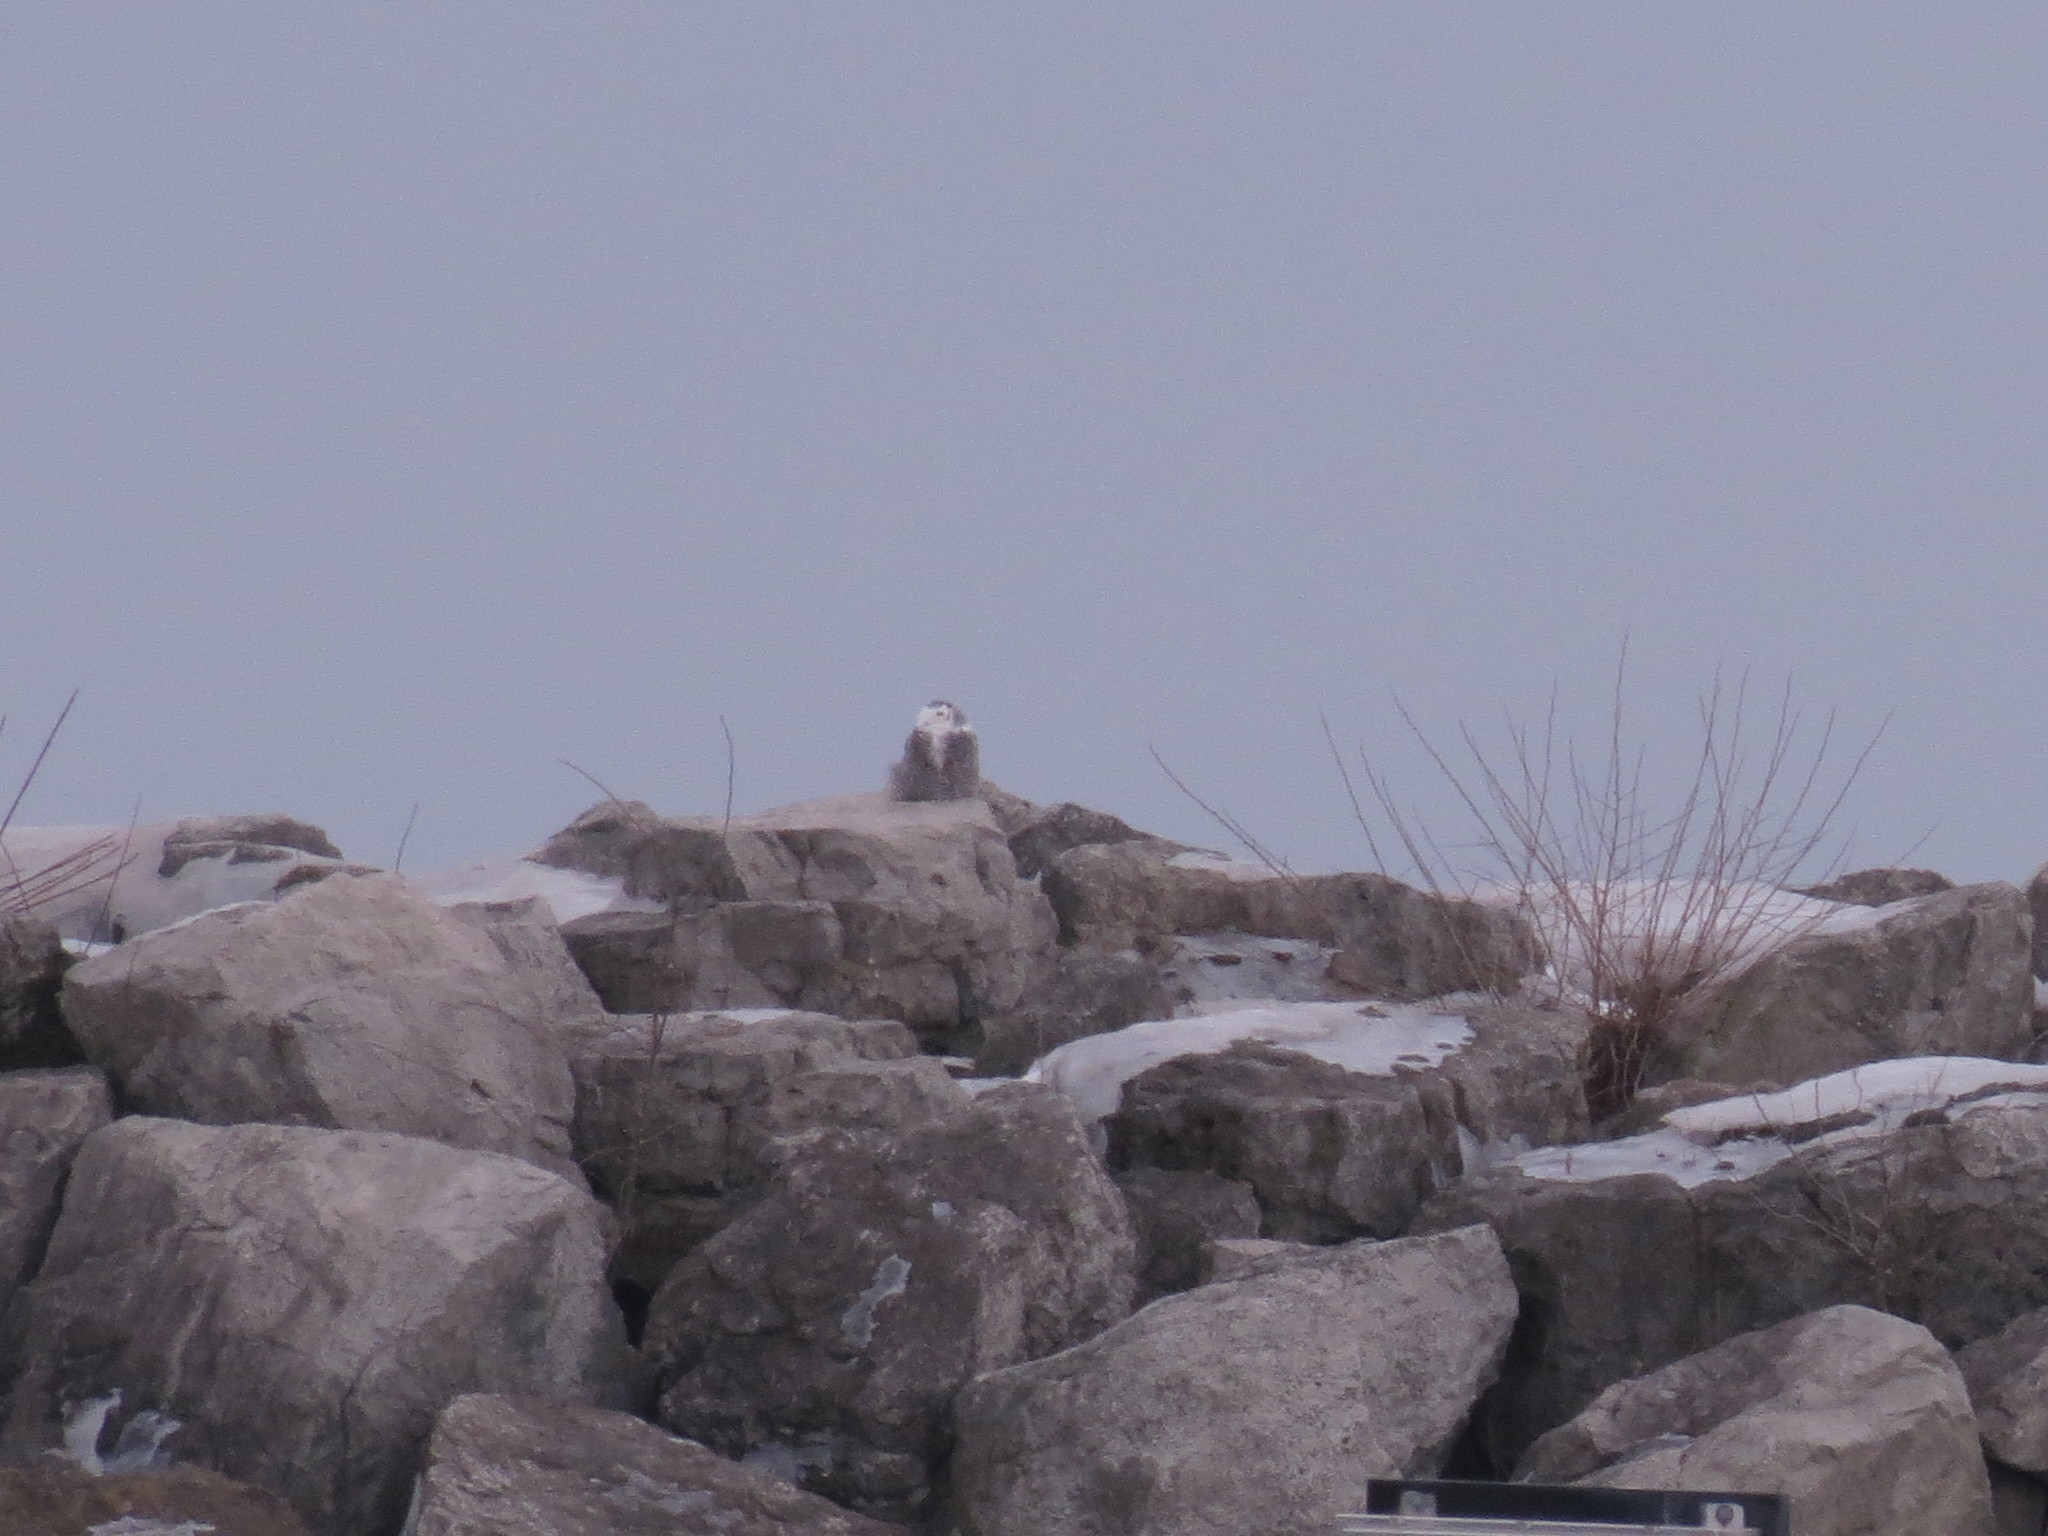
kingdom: Animalia
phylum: Chordata
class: Aves
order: Strigiformes
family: Strigidae
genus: Bubo
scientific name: Bubo scandiacus
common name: Snowy owl
